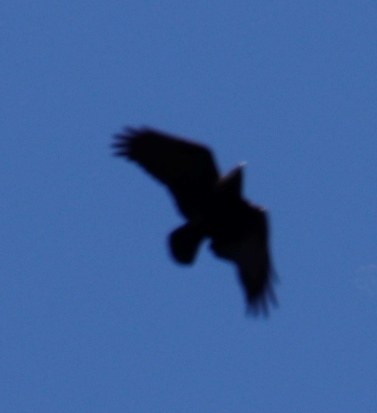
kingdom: Animalia
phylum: Chordata
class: Aves
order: Passeriformes
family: Corvidae
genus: Corvus
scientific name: Corvus albicollis
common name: White-necked raven
